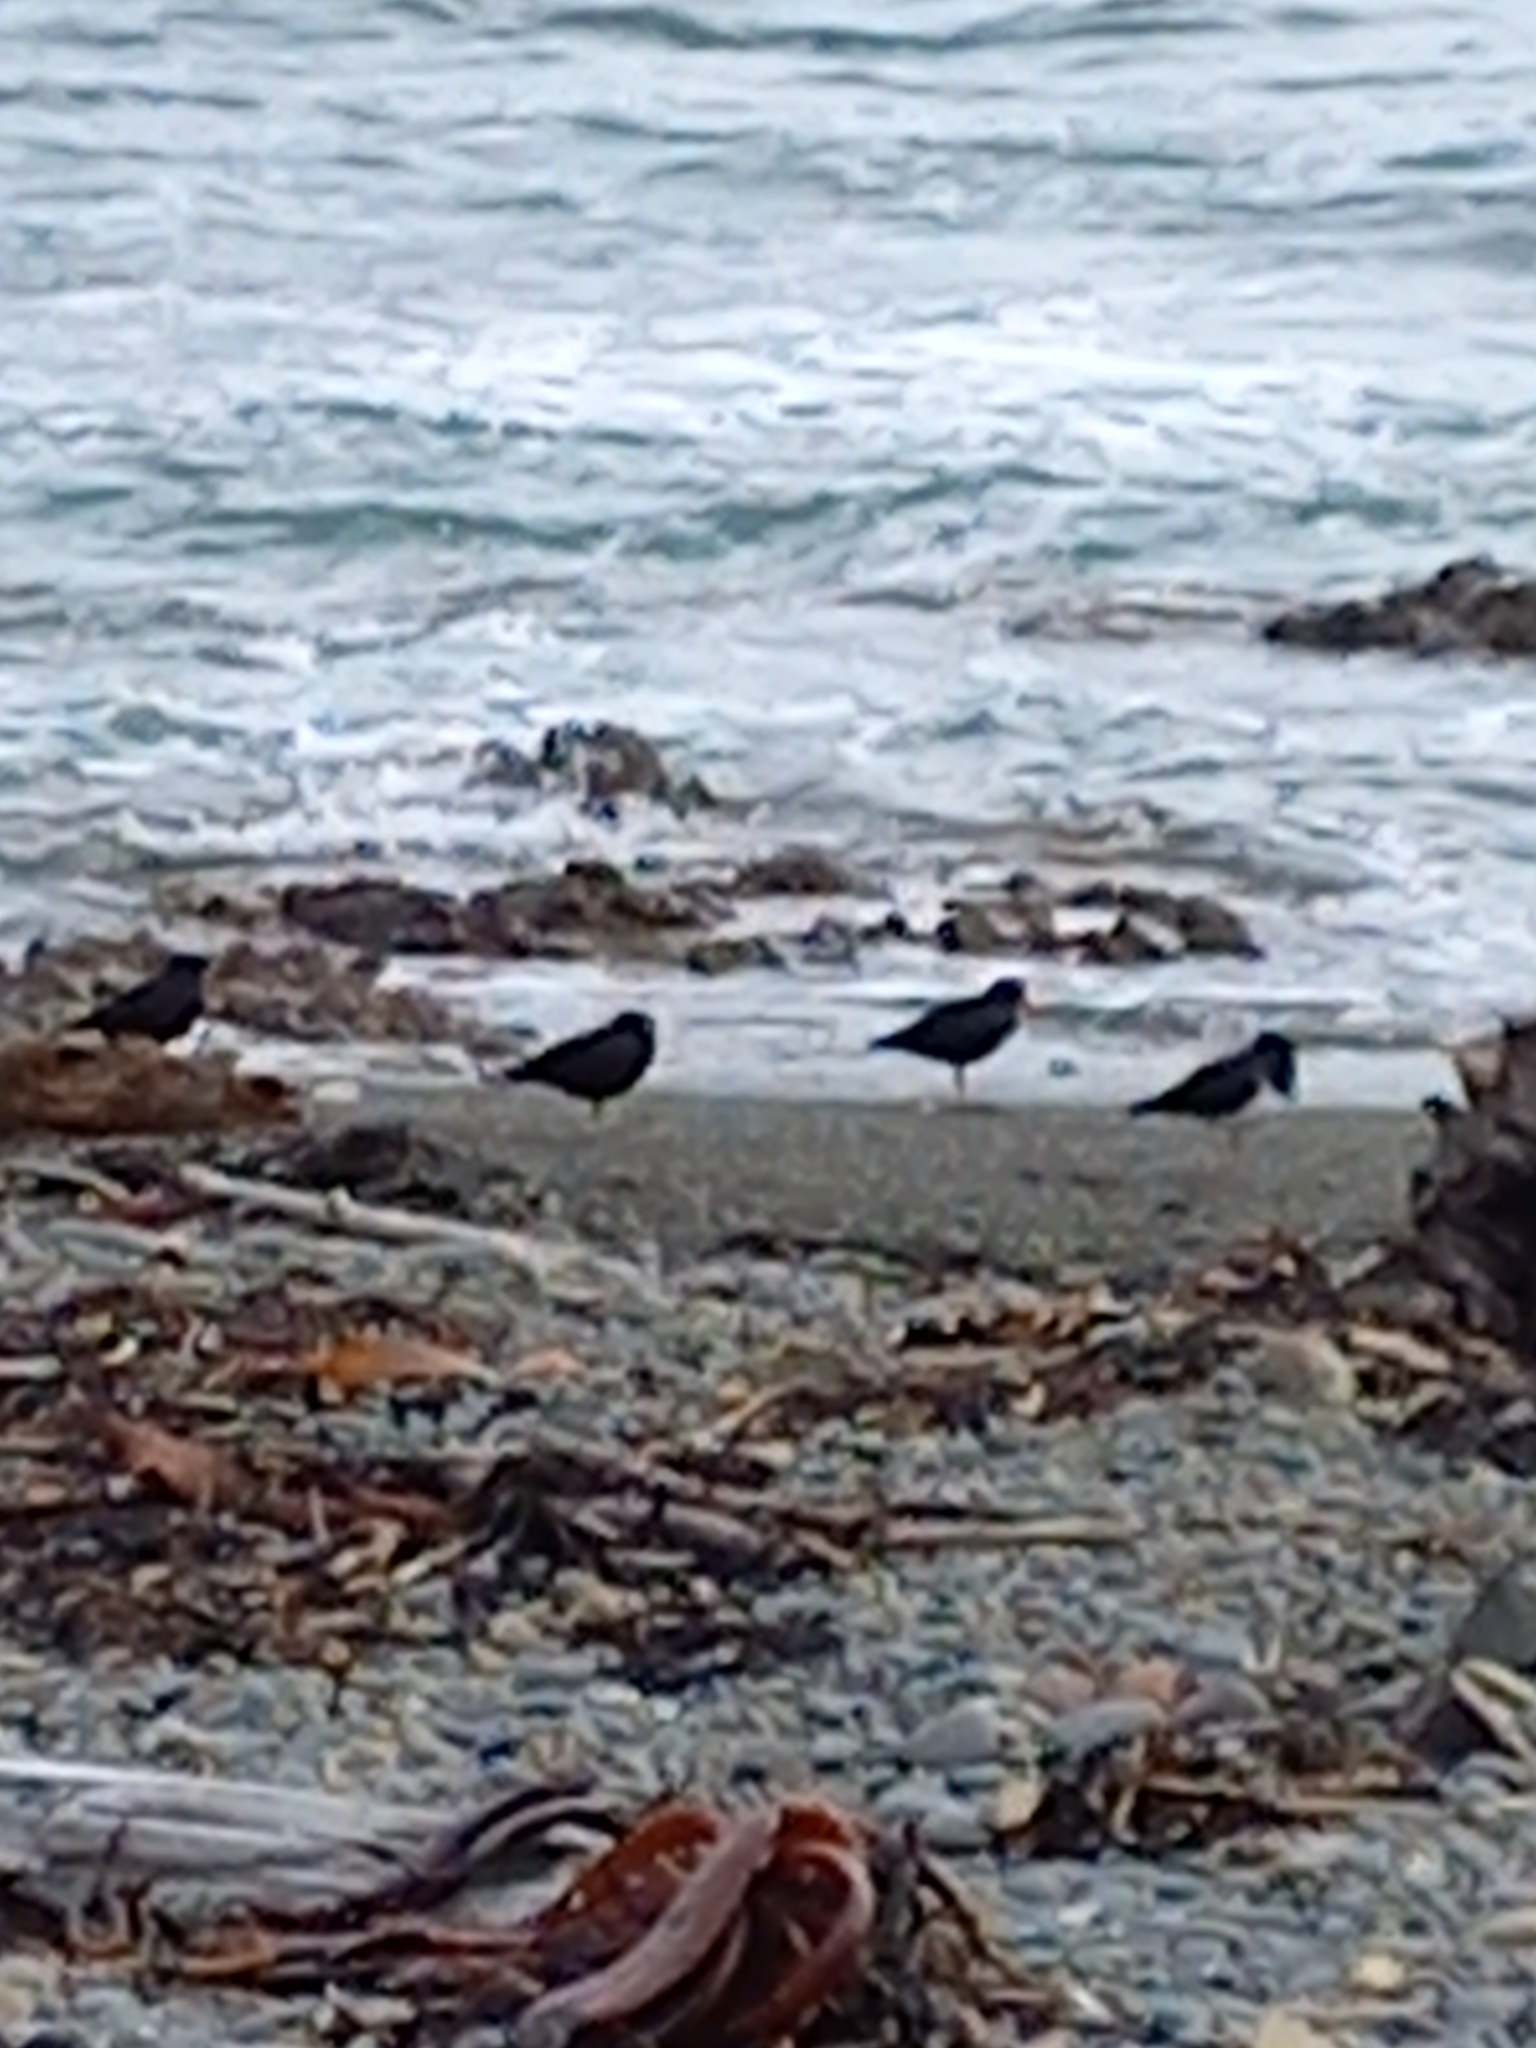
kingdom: Animalia
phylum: Chordata
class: Aves
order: Charadriiformes
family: Haematopodidae
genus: Haematopus
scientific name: Haematopus unicolor
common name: Variable oystercatcher
